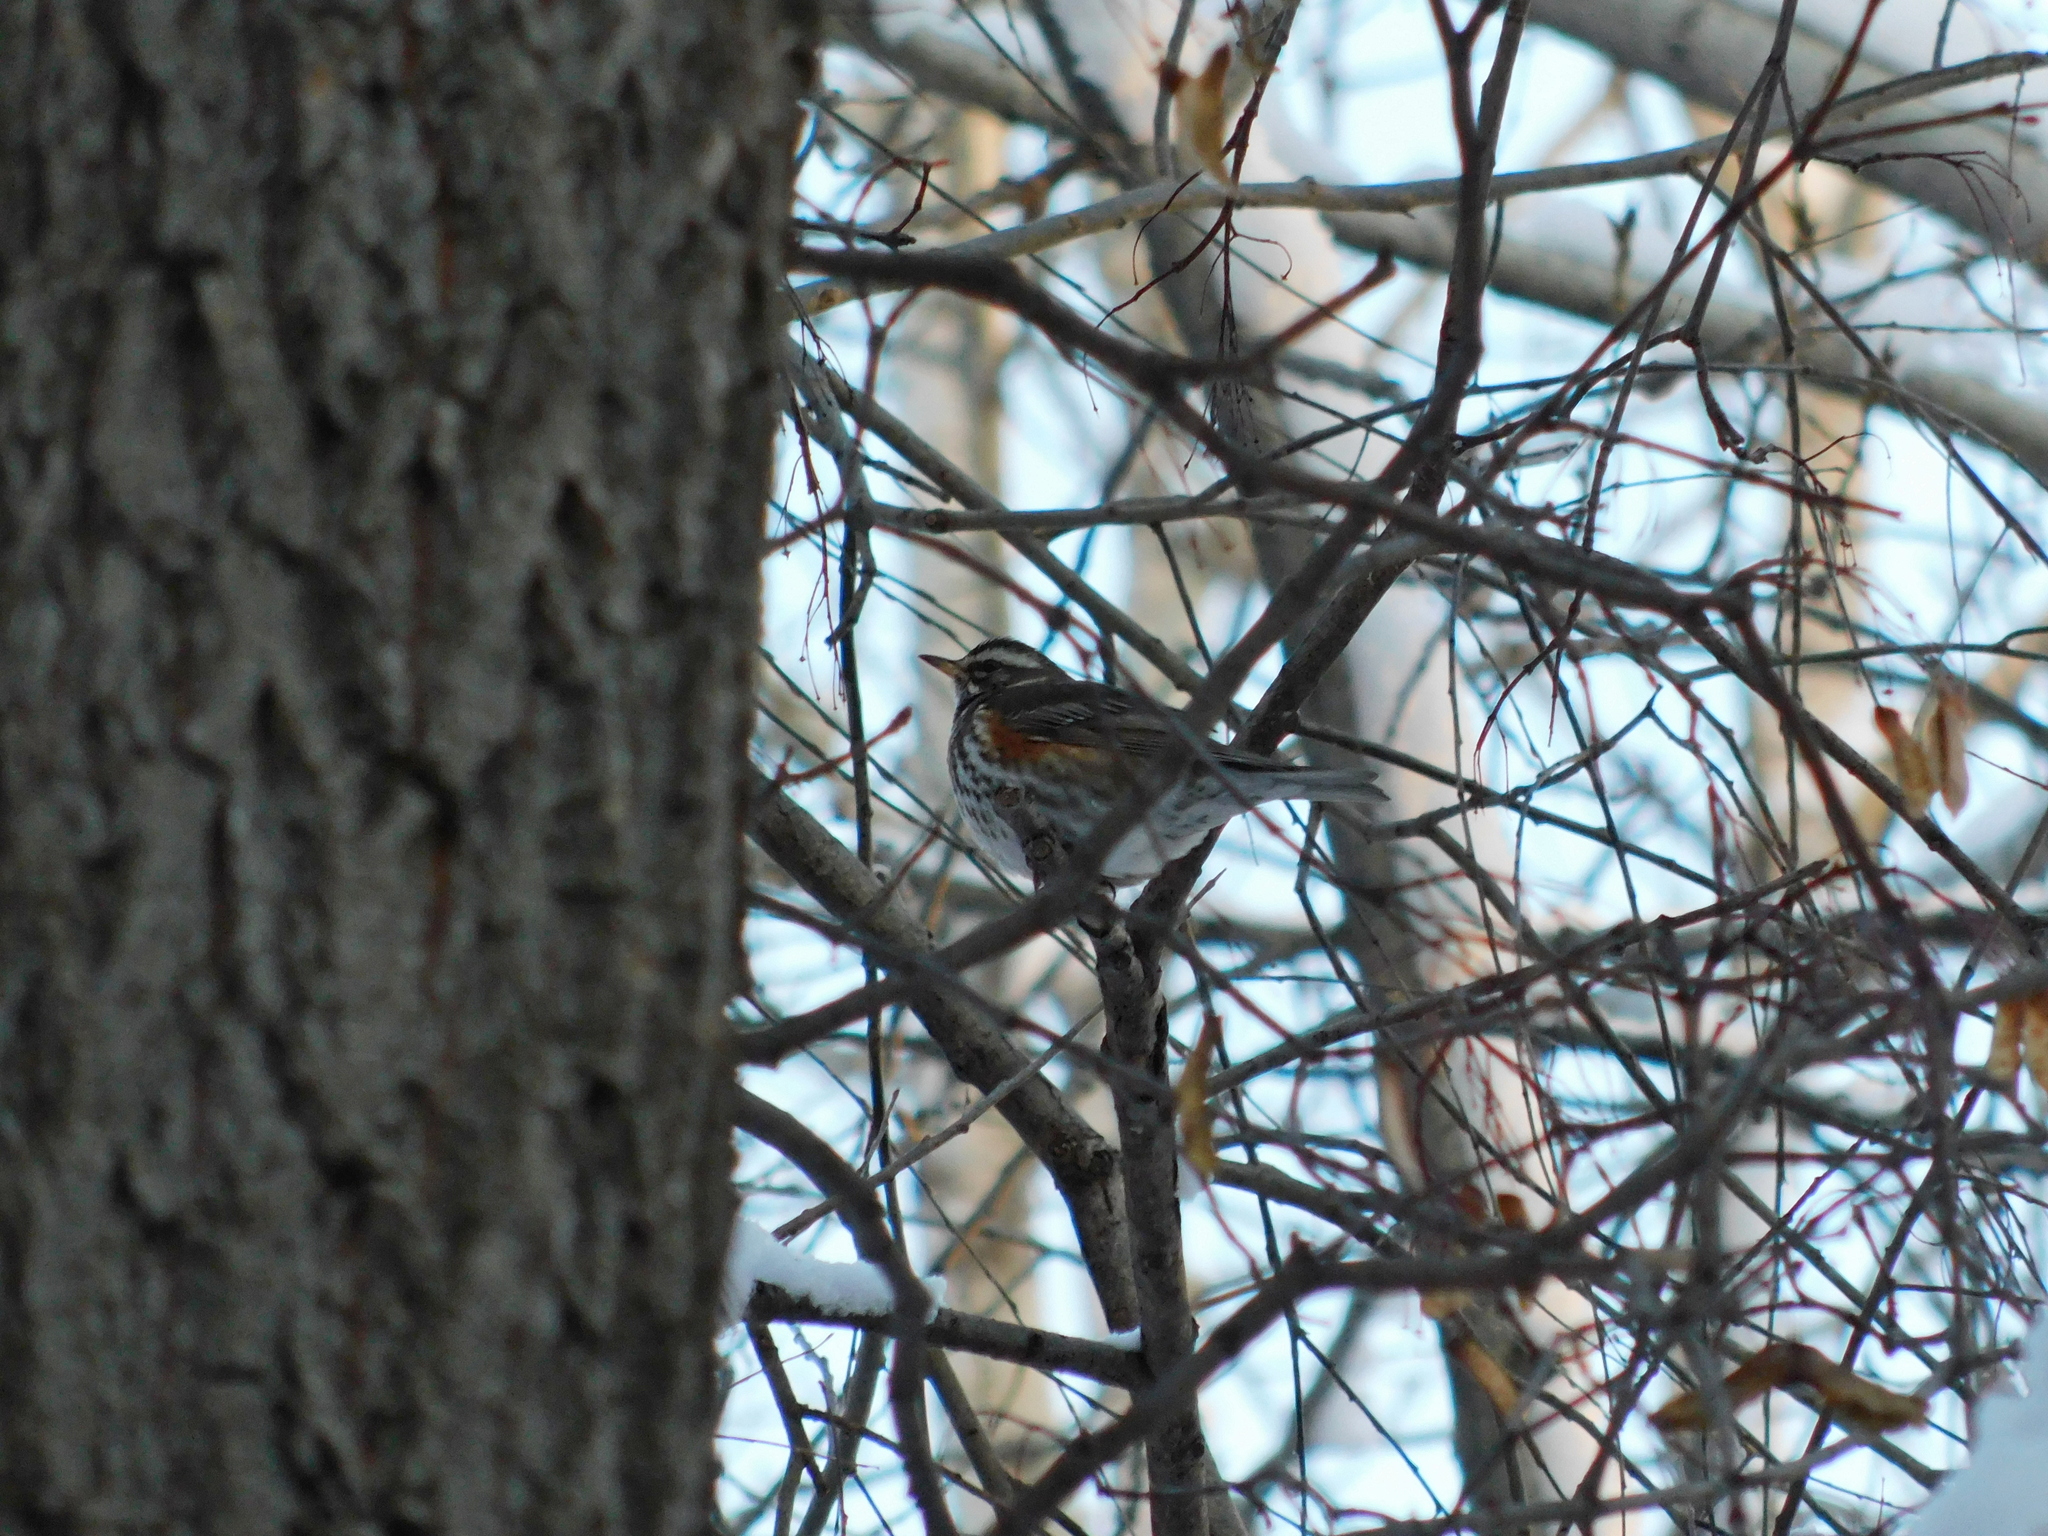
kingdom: Animalia
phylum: Chordata
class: Aves
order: Passeriformes
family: Turdidae
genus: Turdus
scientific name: Turdus iliacus
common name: Redwing
